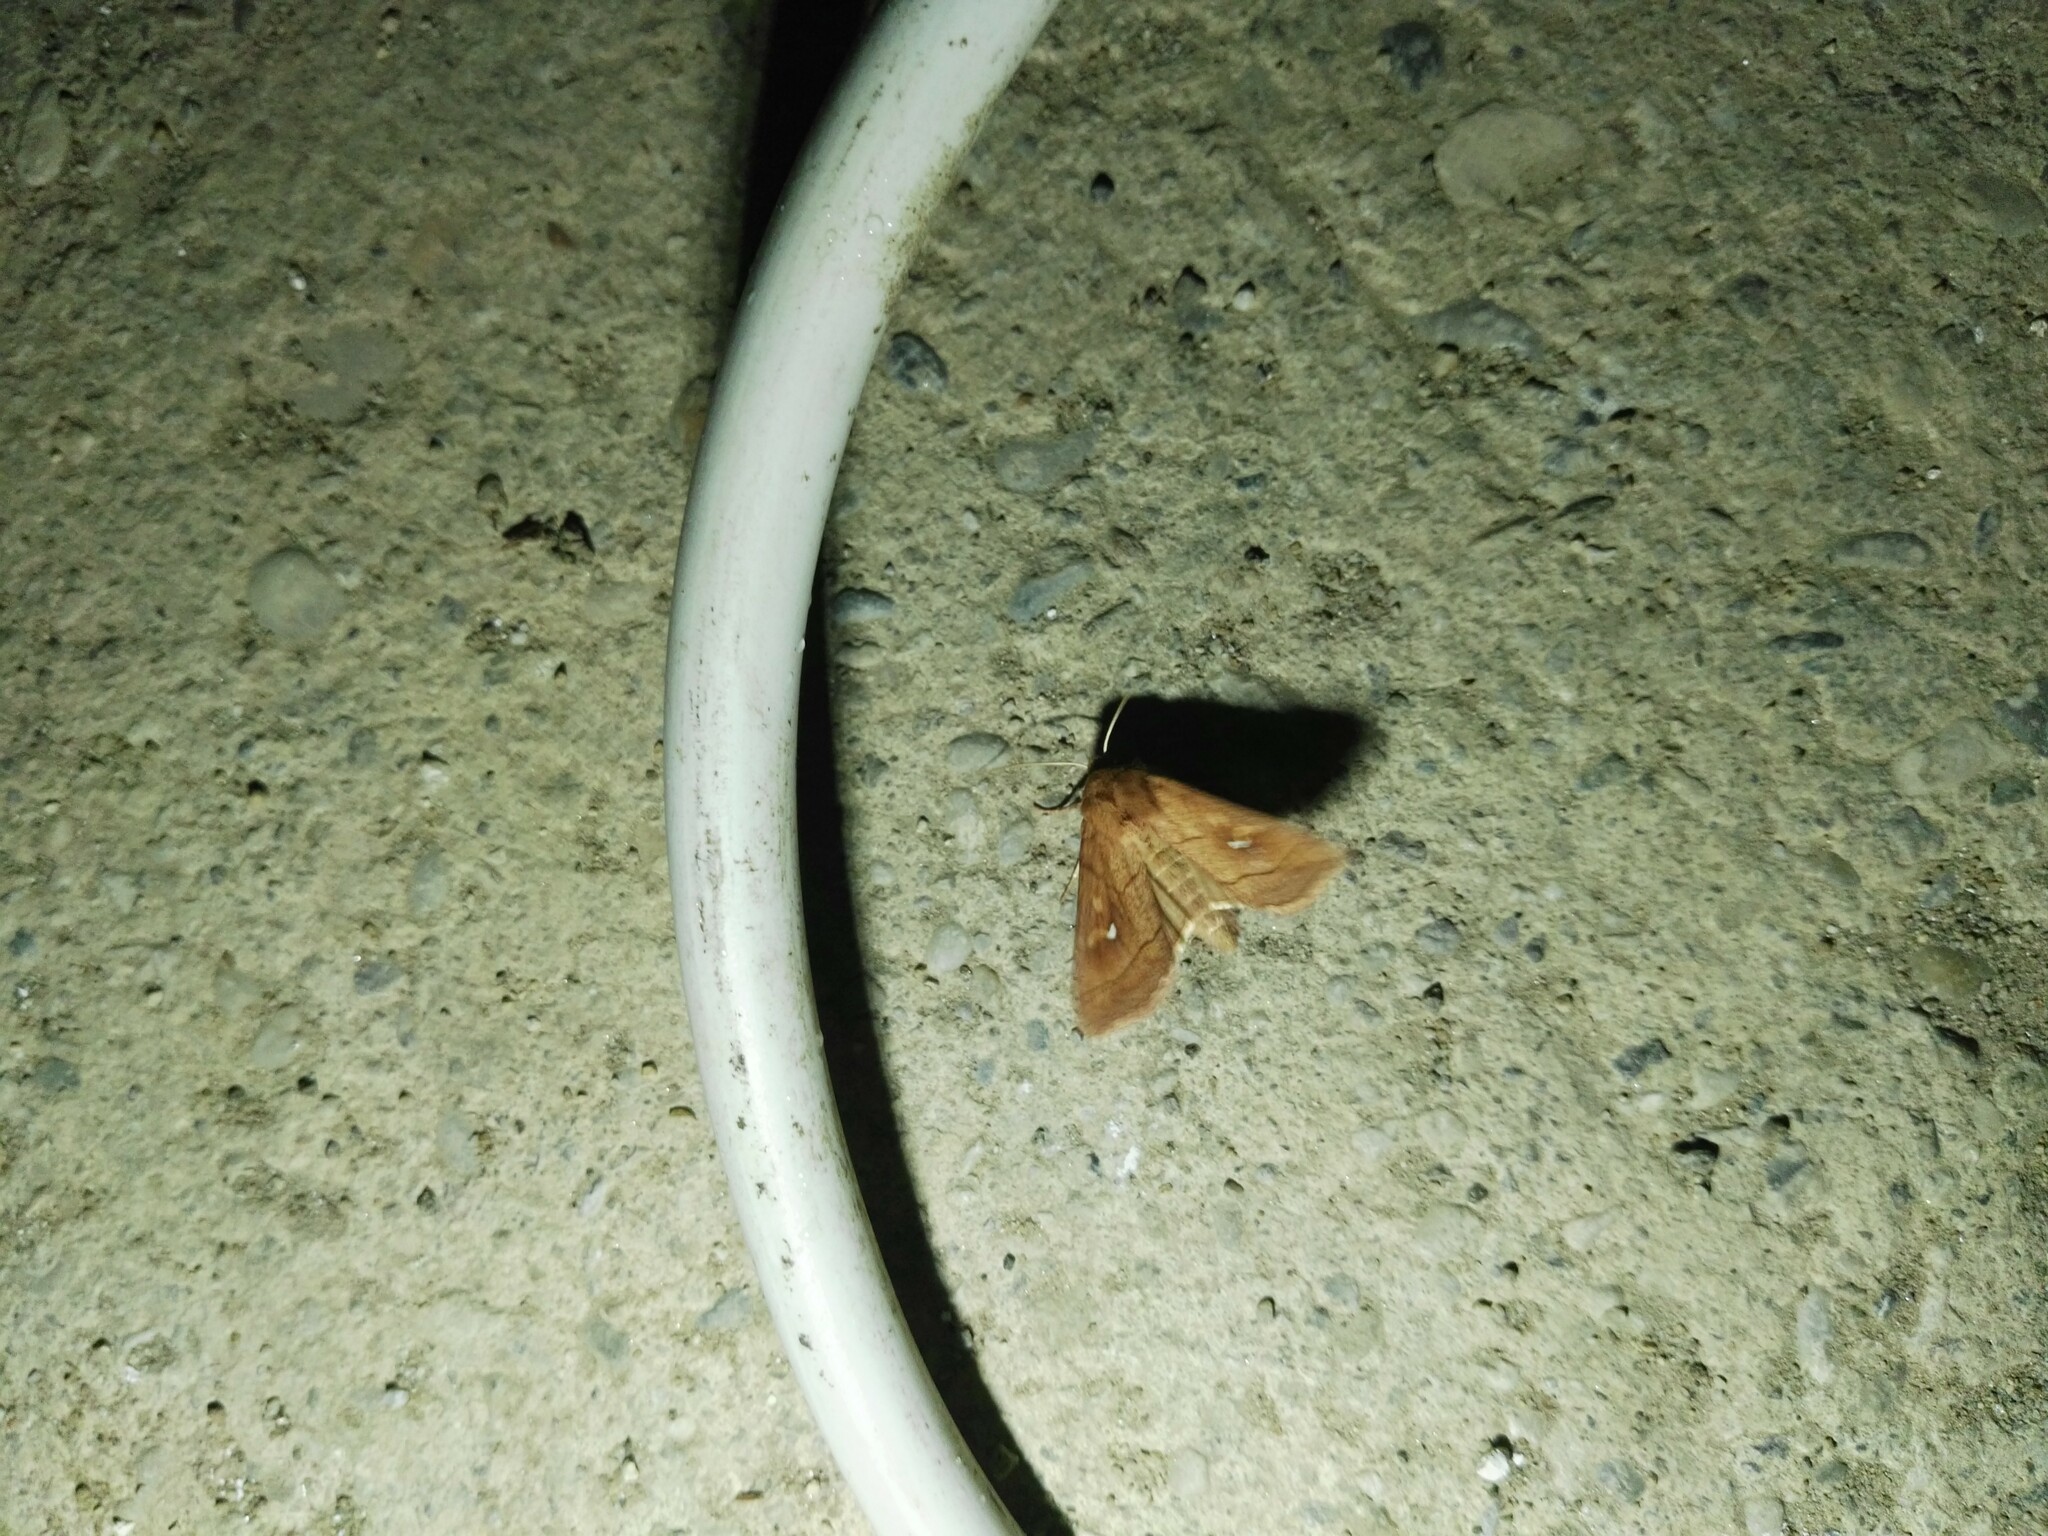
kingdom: Animalia
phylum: Arthropoda
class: Insecta
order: Lepidoptera
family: Noctuidae
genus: Mythimna
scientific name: Mythimna conigera
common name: Brown-line bright-eye
